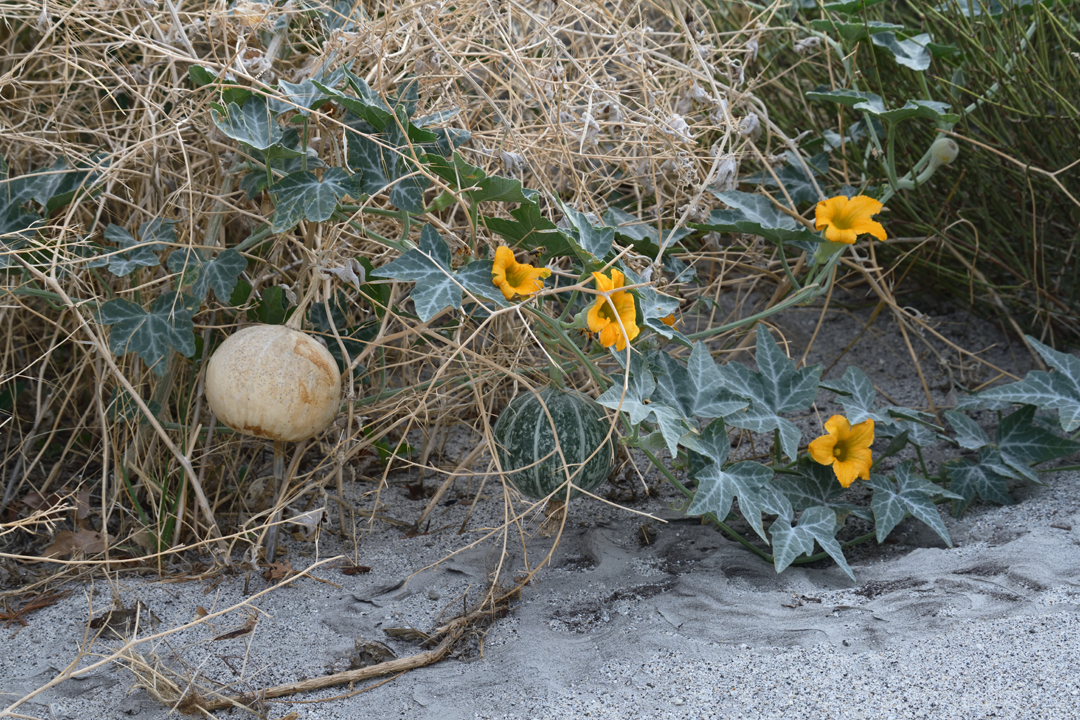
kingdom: Plantae
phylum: Tracheophyta
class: Magnoliopsida
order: Cucurbitales
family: Cucurbitaceae
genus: Cucurbita
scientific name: Cucurbita palmata
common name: Coyote-melon
